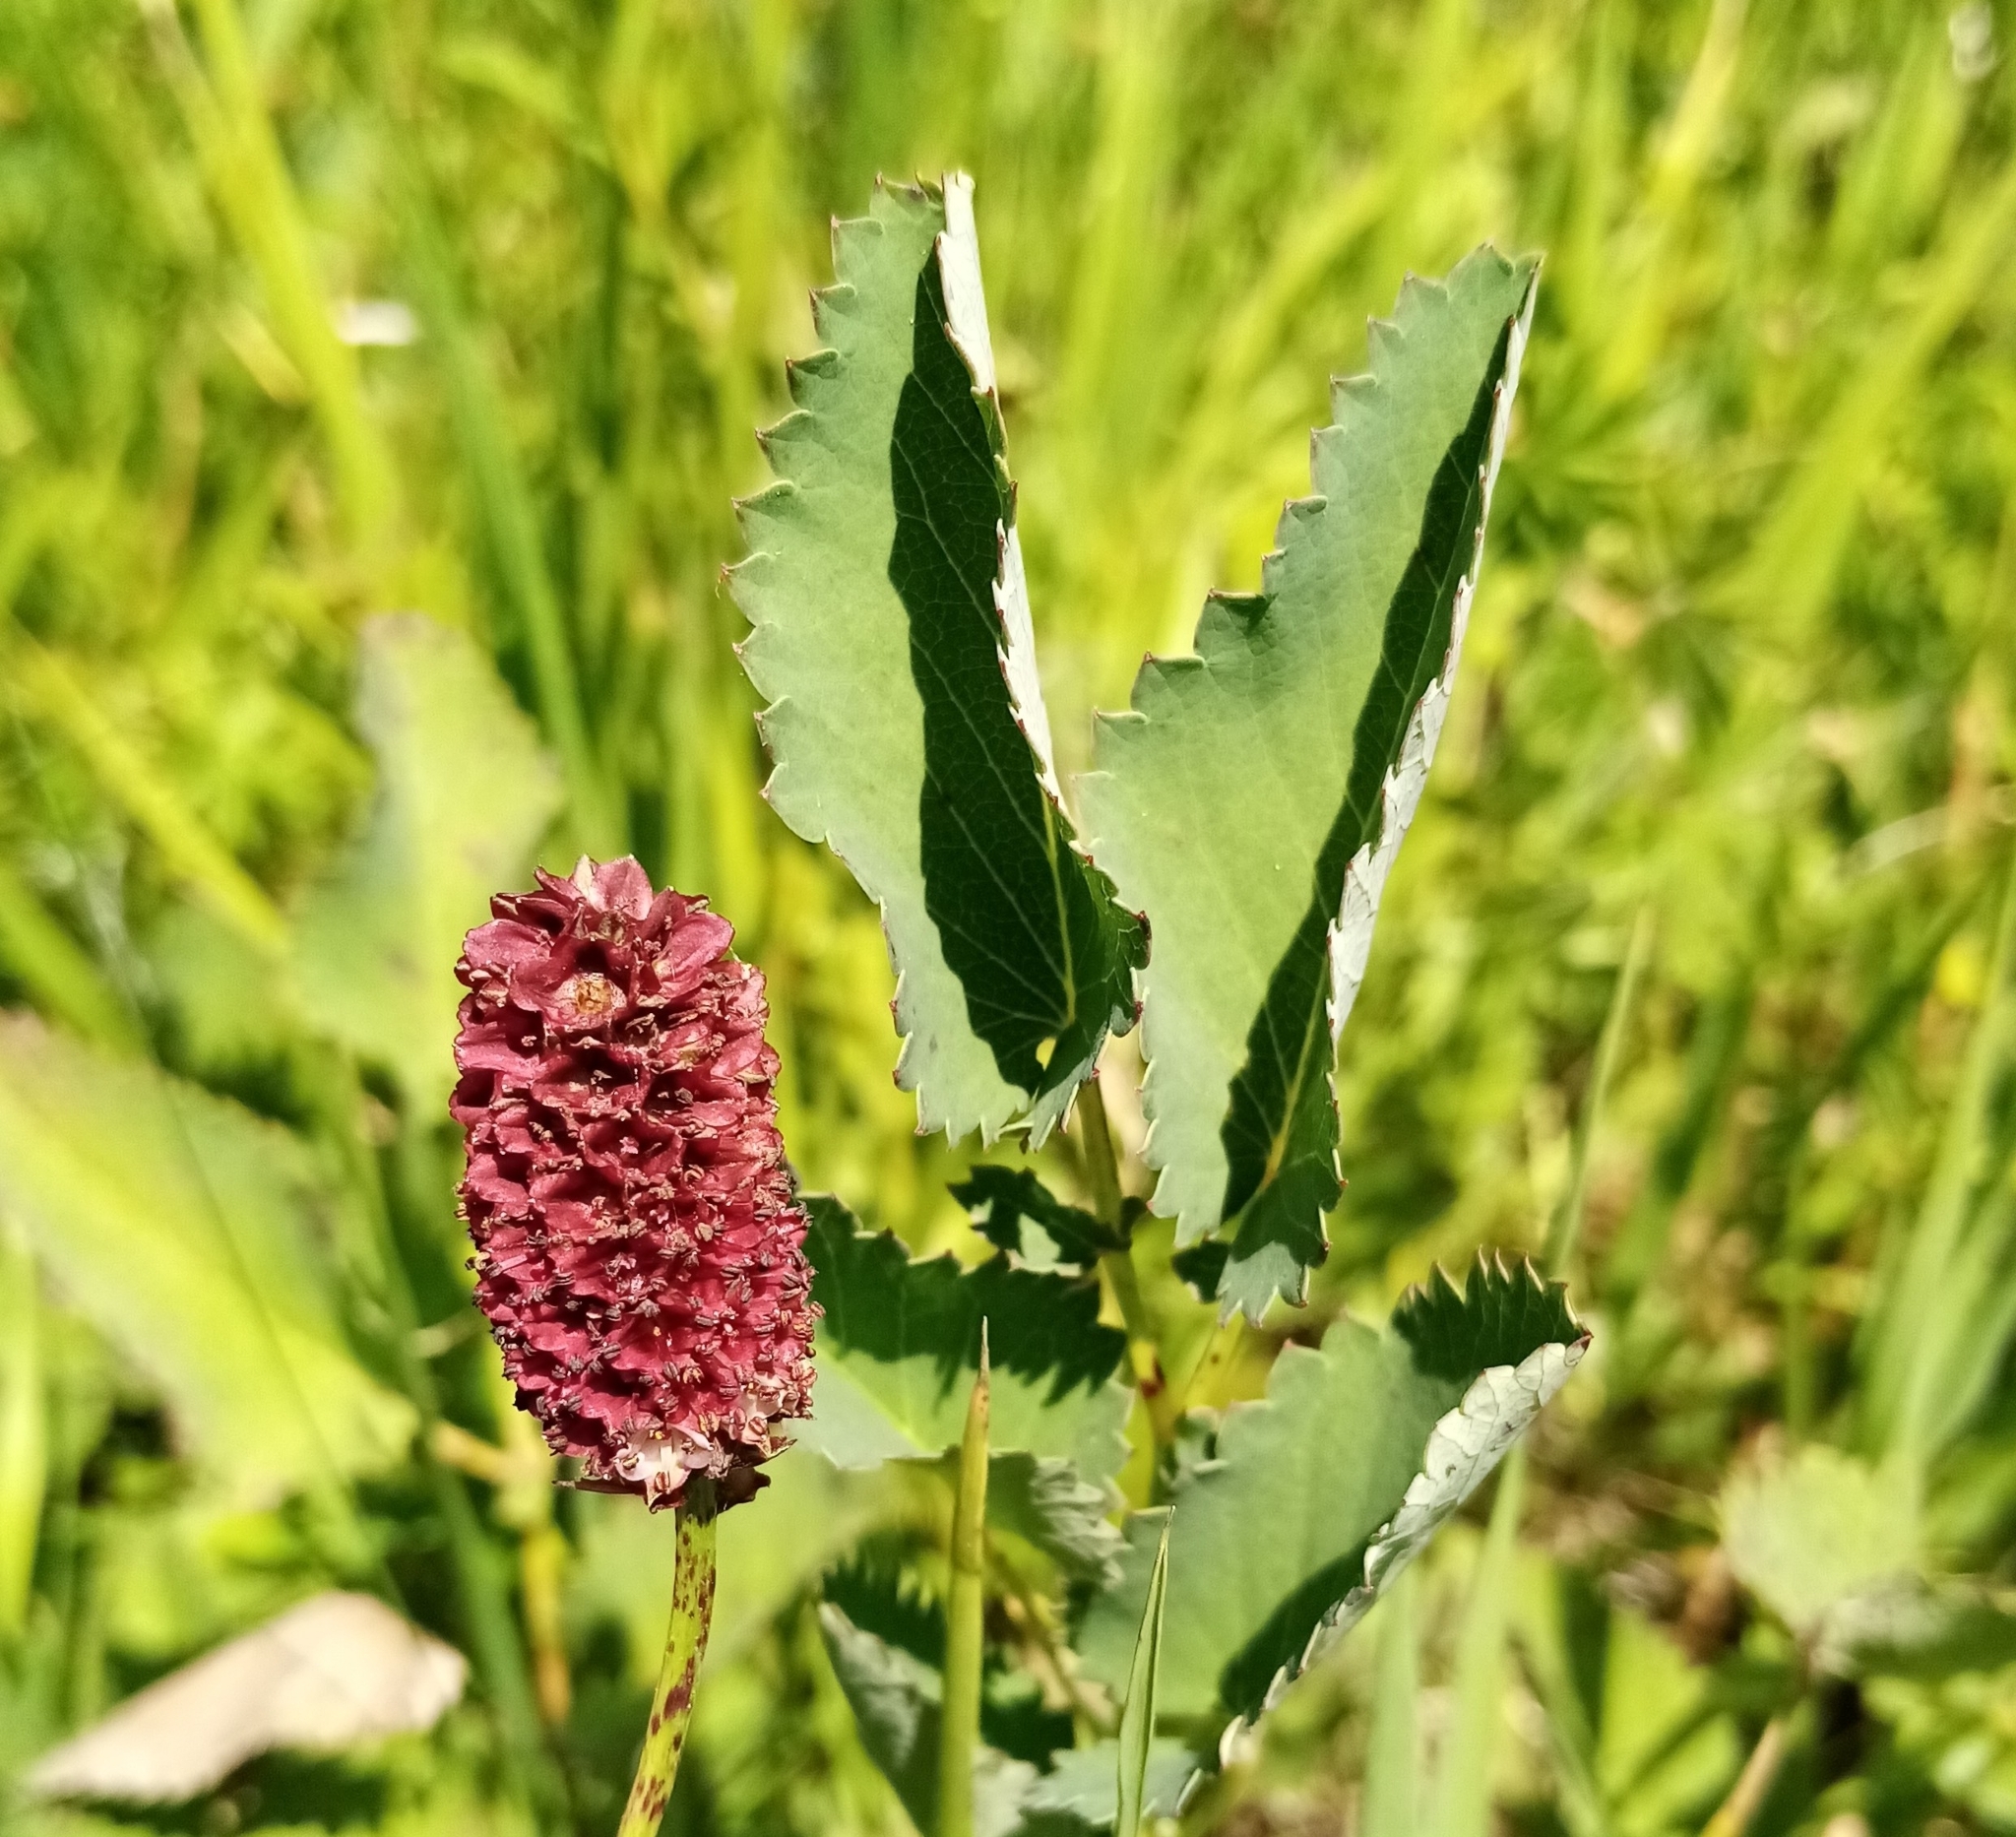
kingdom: Plantae
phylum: Tracheophyta
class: Magnoliopsida
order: Rosales
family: Rosaceae
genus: Sanguisorba
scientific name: Sanguisorba officinalis
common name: Great burnet
